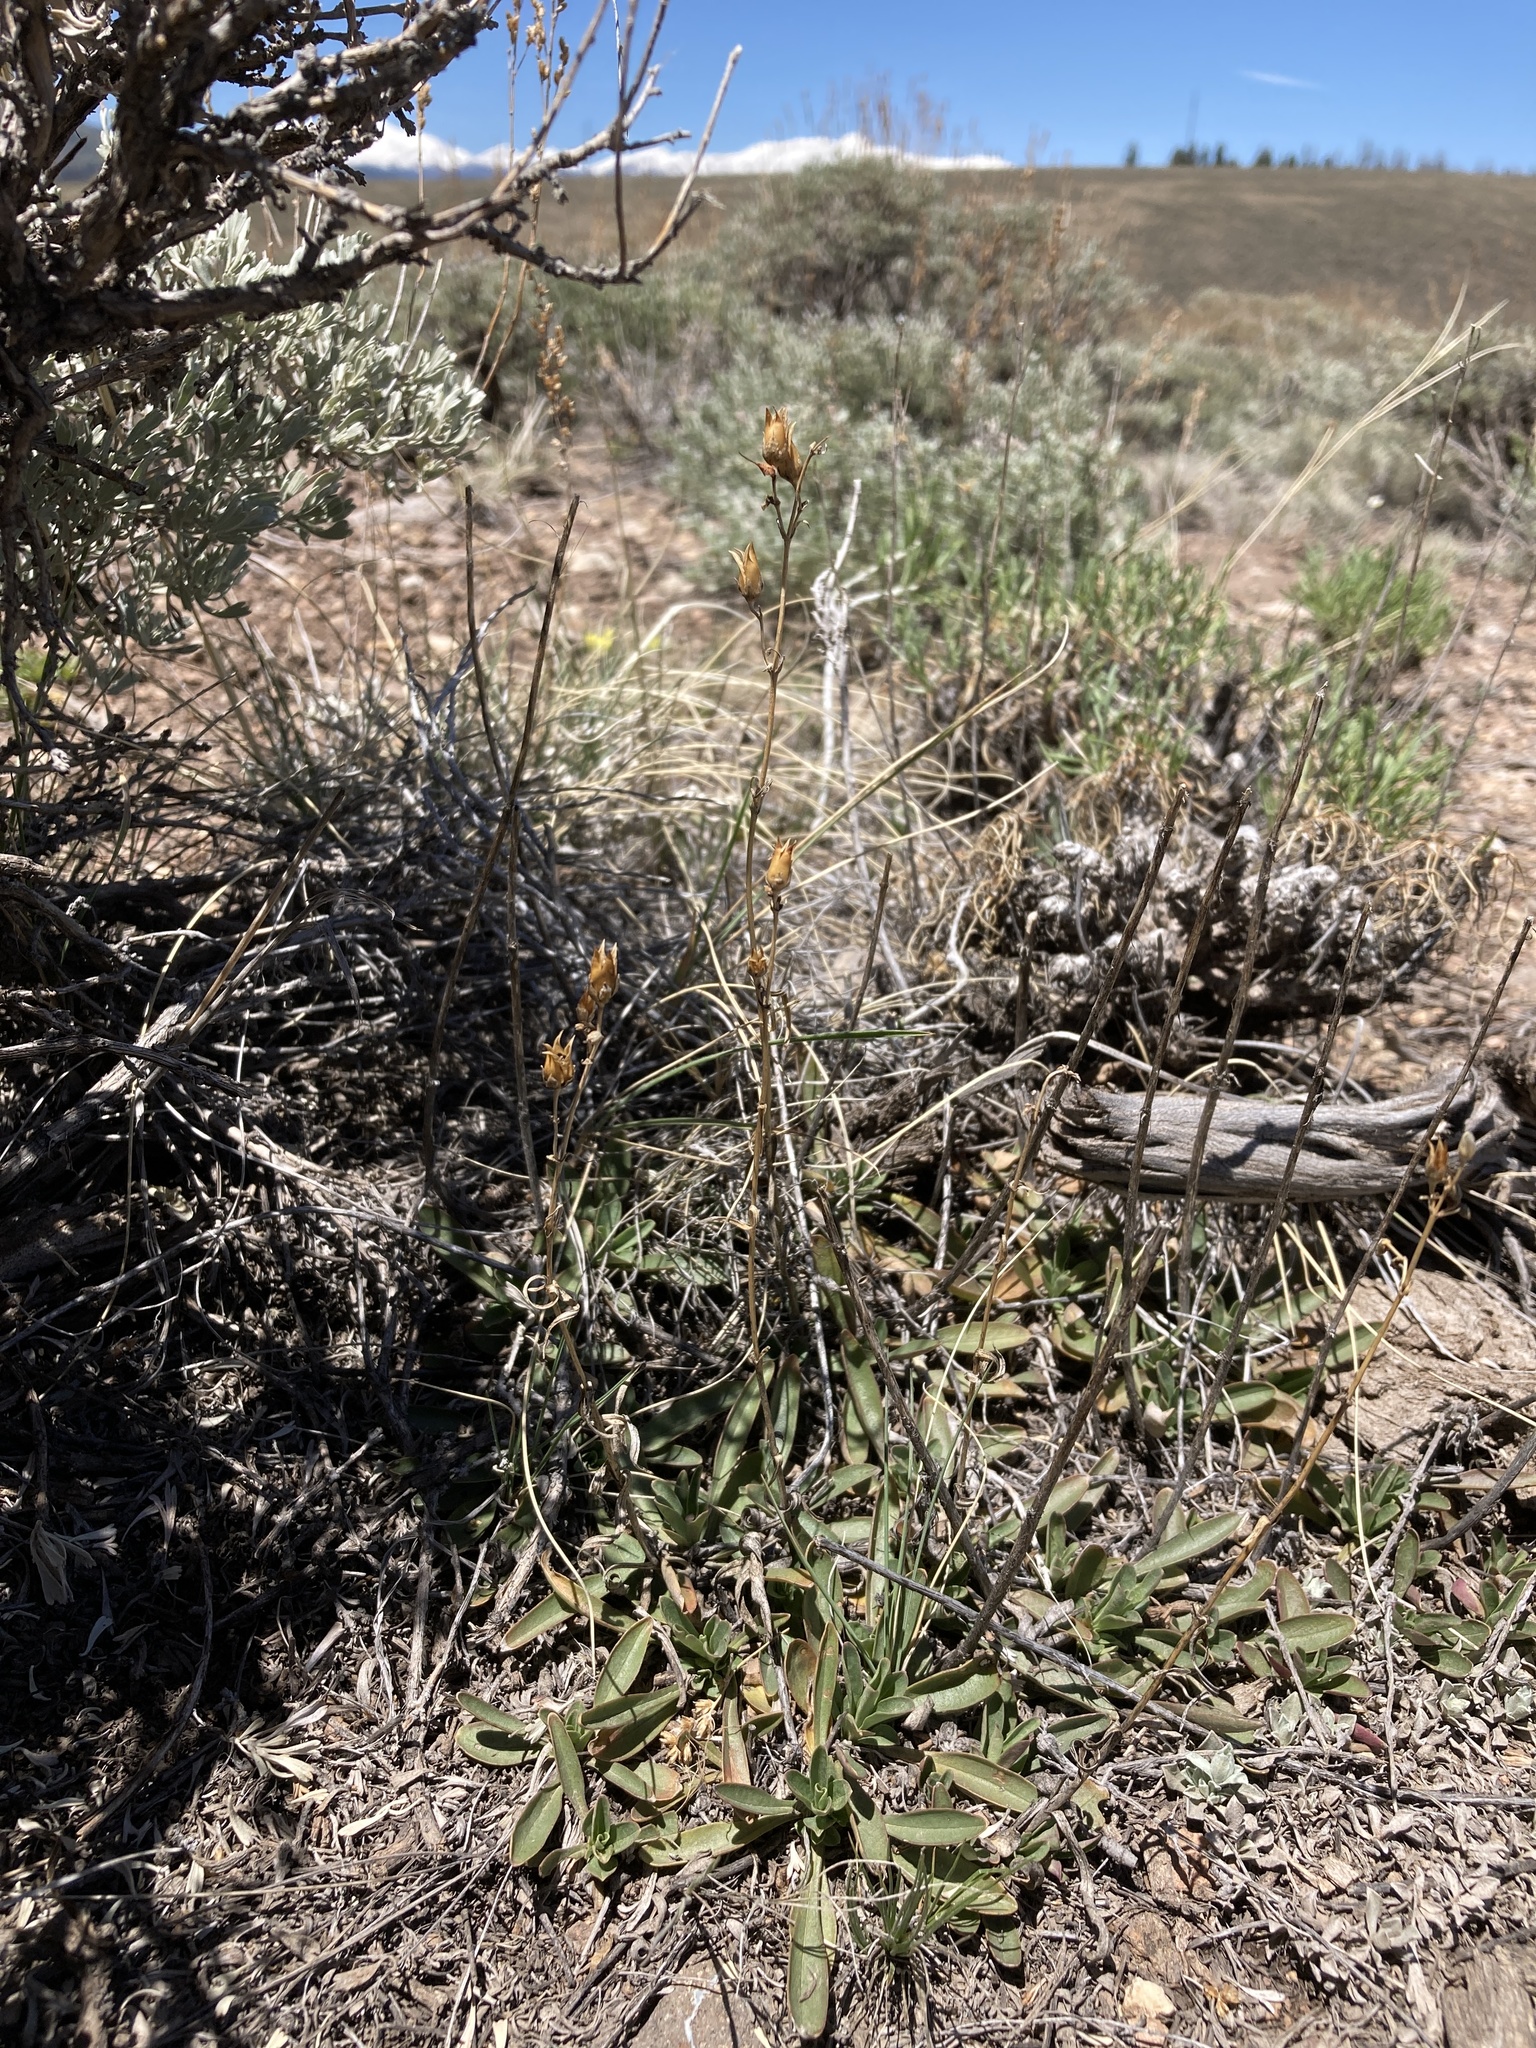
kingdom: Plantae
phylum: Tracheophyta
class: Magnoliopsida
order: Lamiales
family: Plantaginaceae
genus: Penstemon
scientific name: Penstemon strictus
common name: Rocky mountain penstemon
